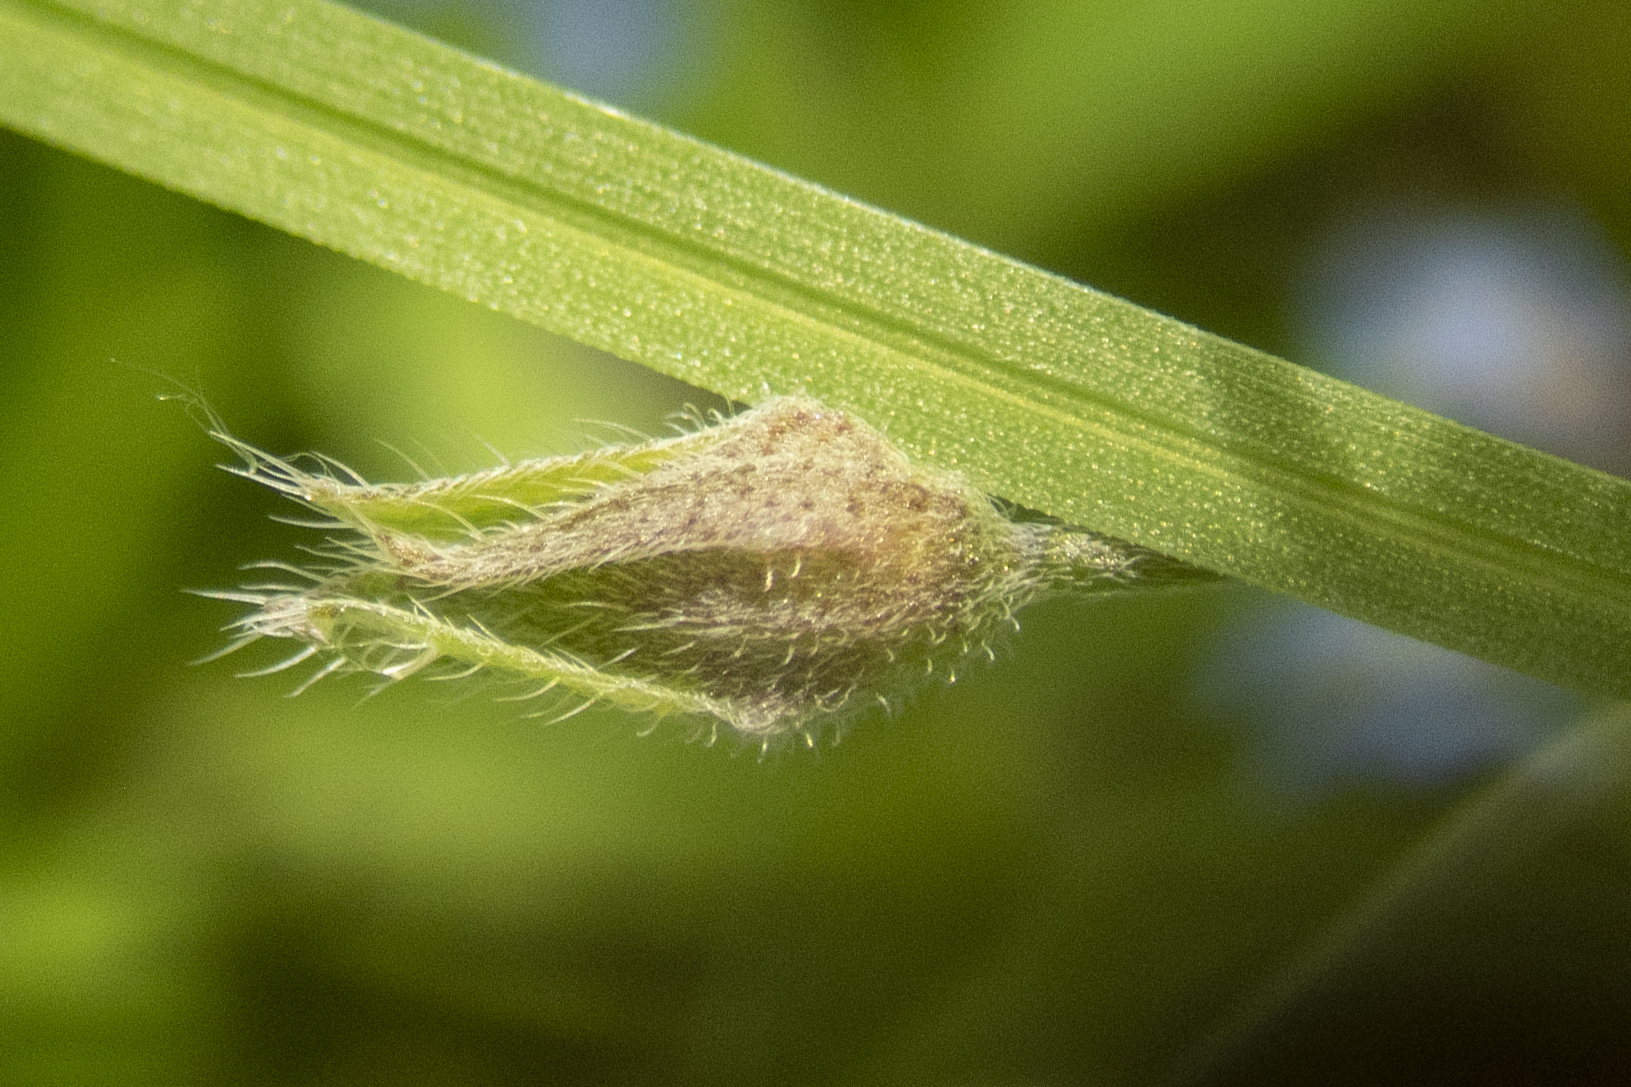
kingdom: Plantae
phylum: Tracheophyta
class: Magnoliopsida
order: Boraginales
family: Boraginaceae
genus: Myosotis
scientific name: Myosotis sylvatica
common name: Wood forget-me-not
